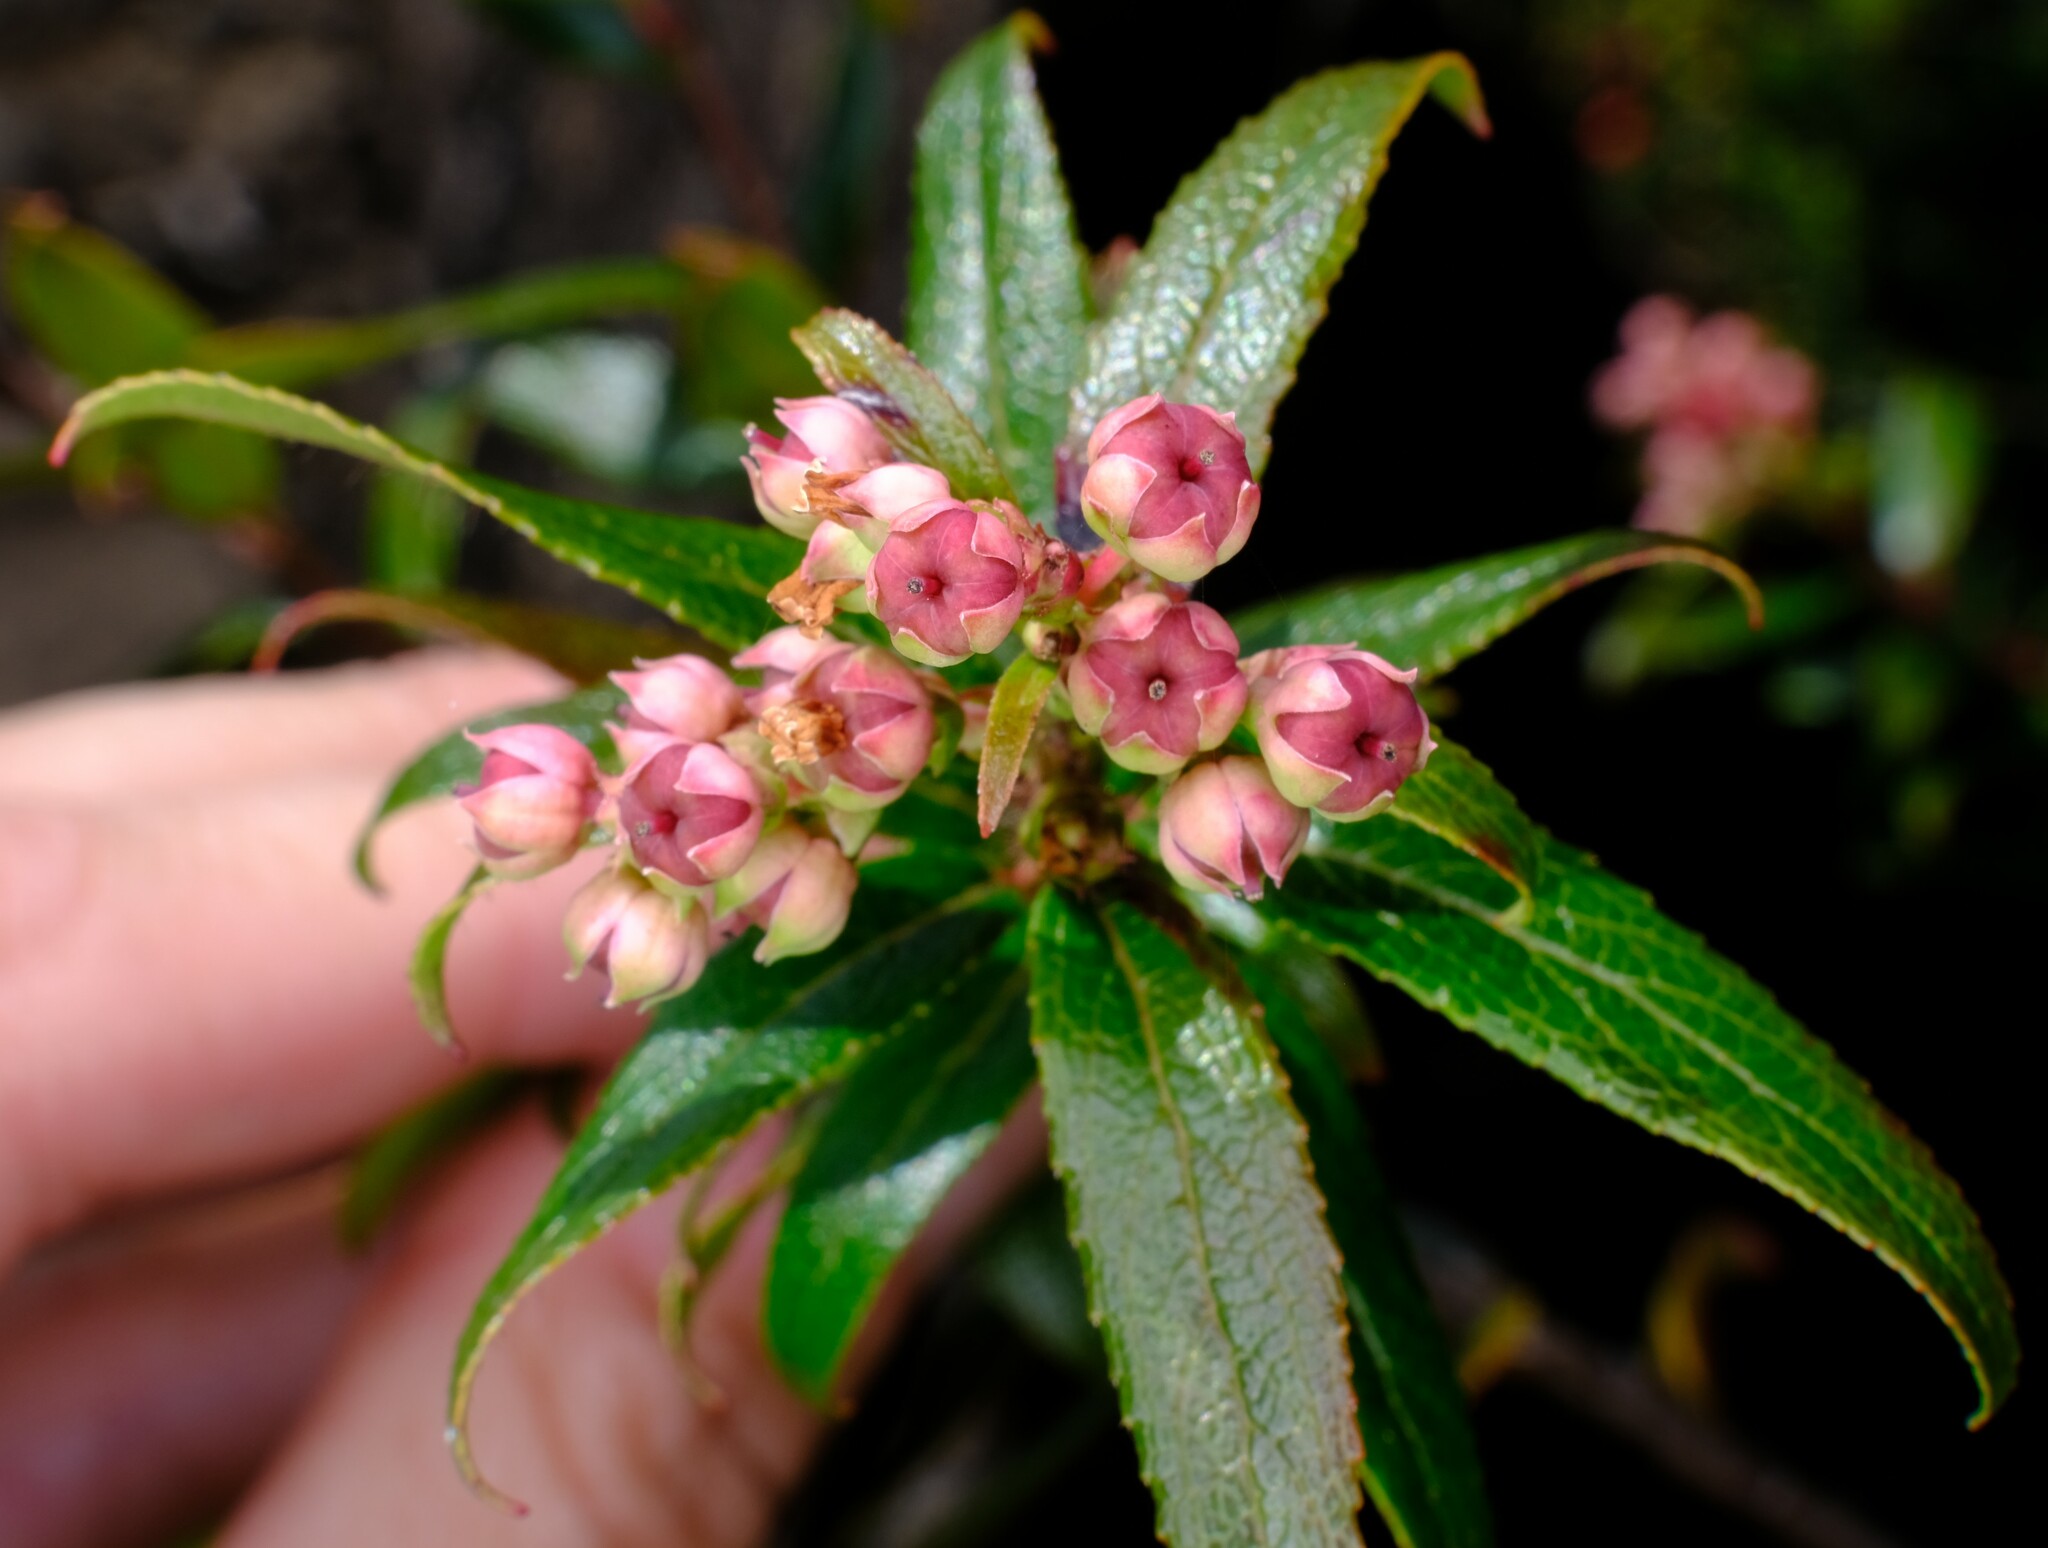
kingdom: Plantae
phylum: Tracheophyta
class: Magnoliopsida
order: Ericales
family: Ericaceae
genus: Gaultheria
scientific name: Gaultheria hispida
